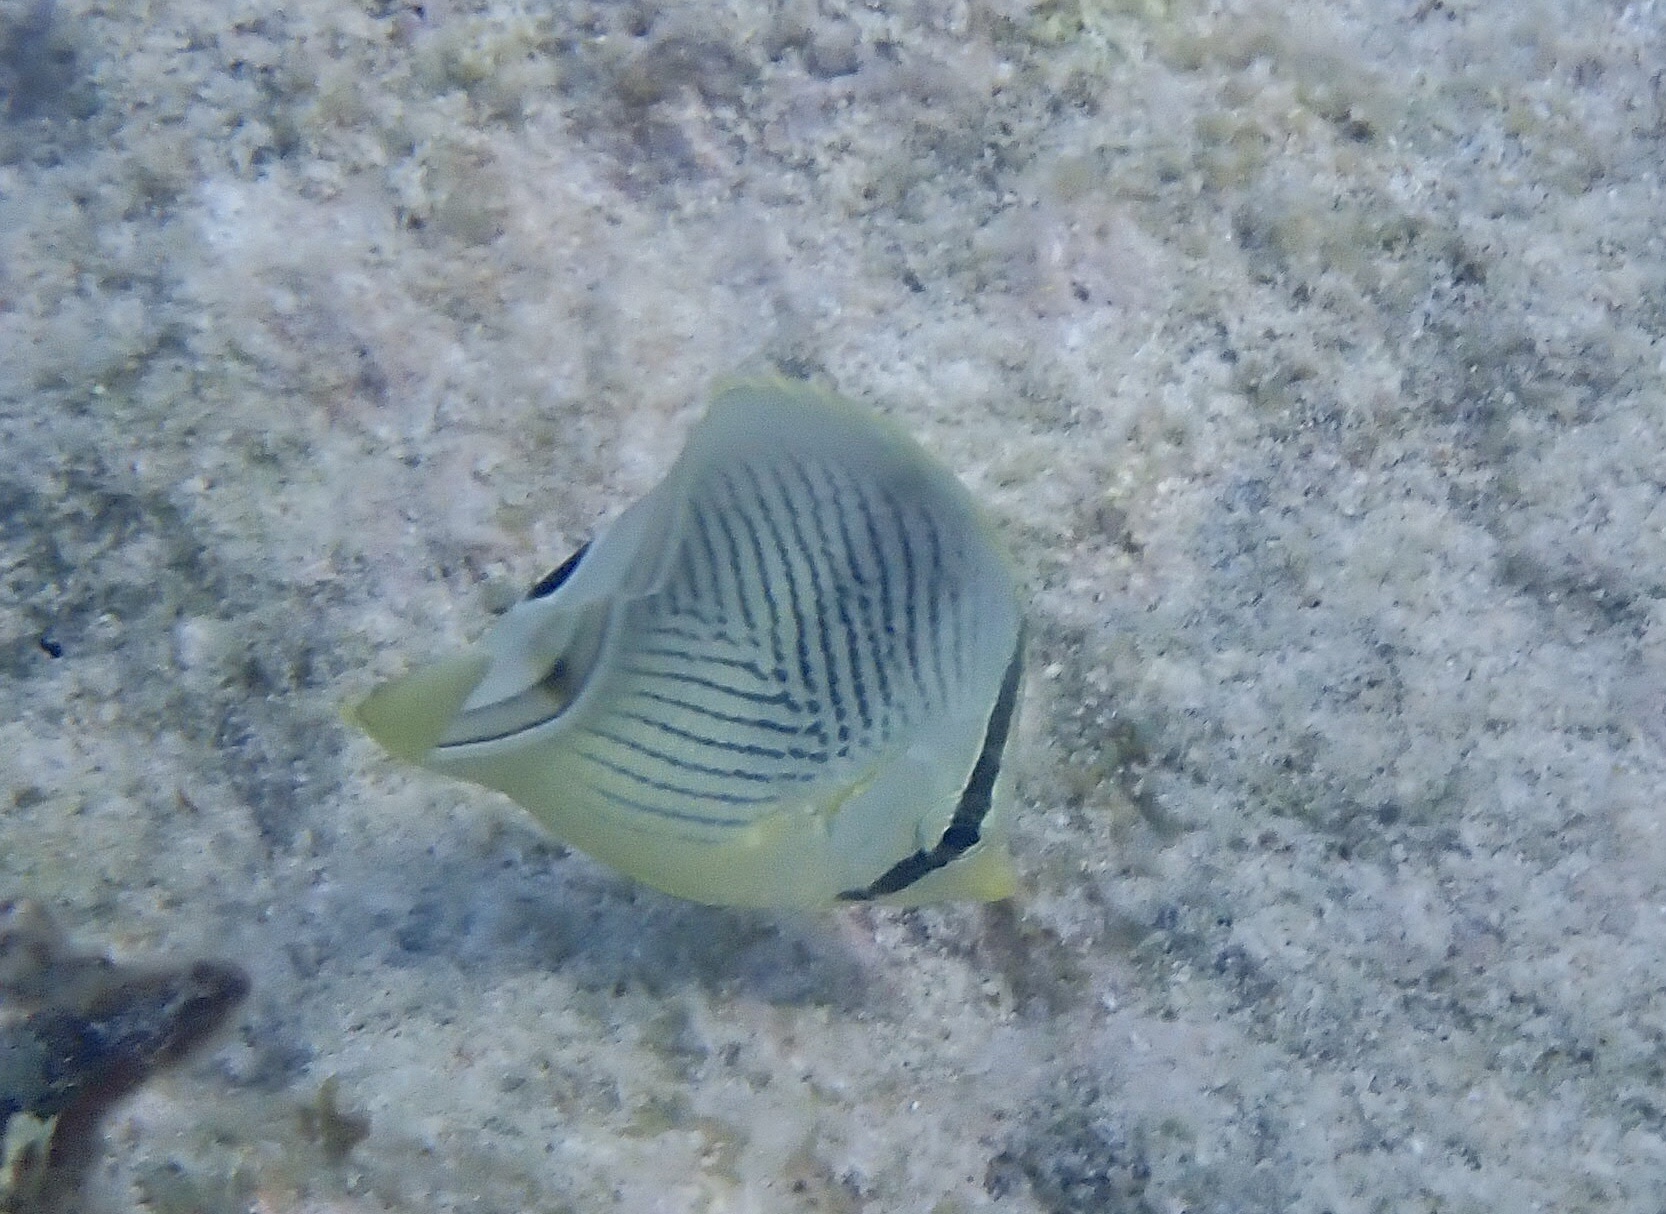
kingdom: Animalia
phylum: Chordata
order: Perciformes
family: Chaetodontidae
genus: Chaetodon
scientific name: Chaetodon capistratus
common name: Kete
